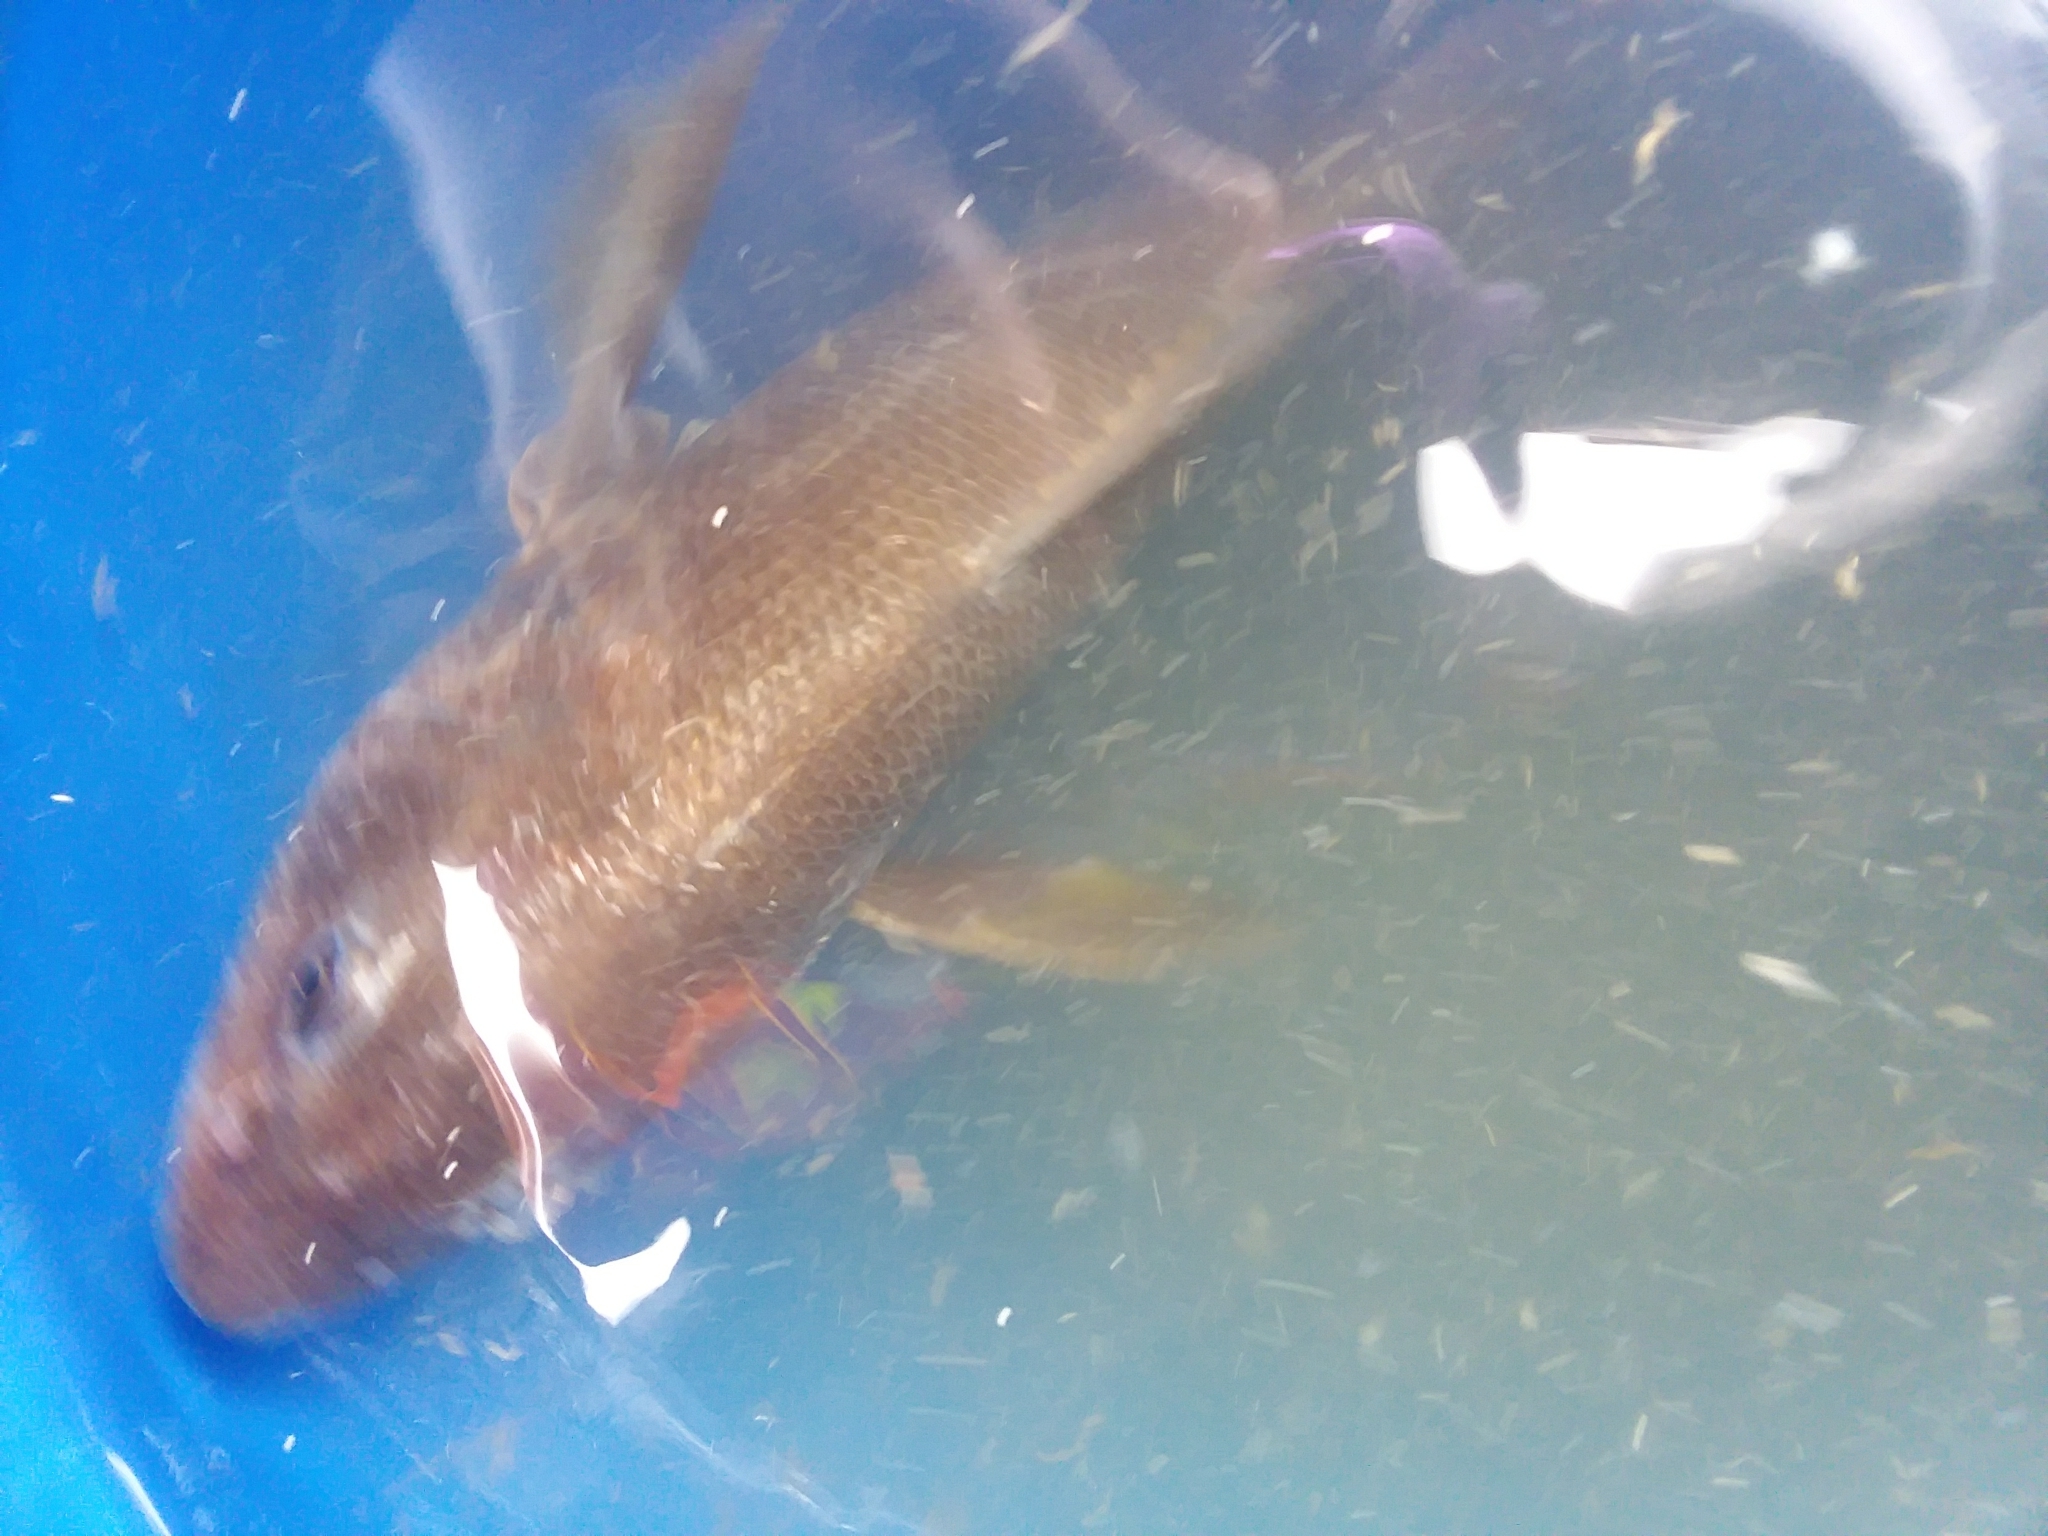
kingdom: Animalia
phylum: Chordata
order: Perciformes
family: Sciaenidae
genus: Menticirrhus
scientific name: Menticirrhus americanus
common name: Southern kingfish
